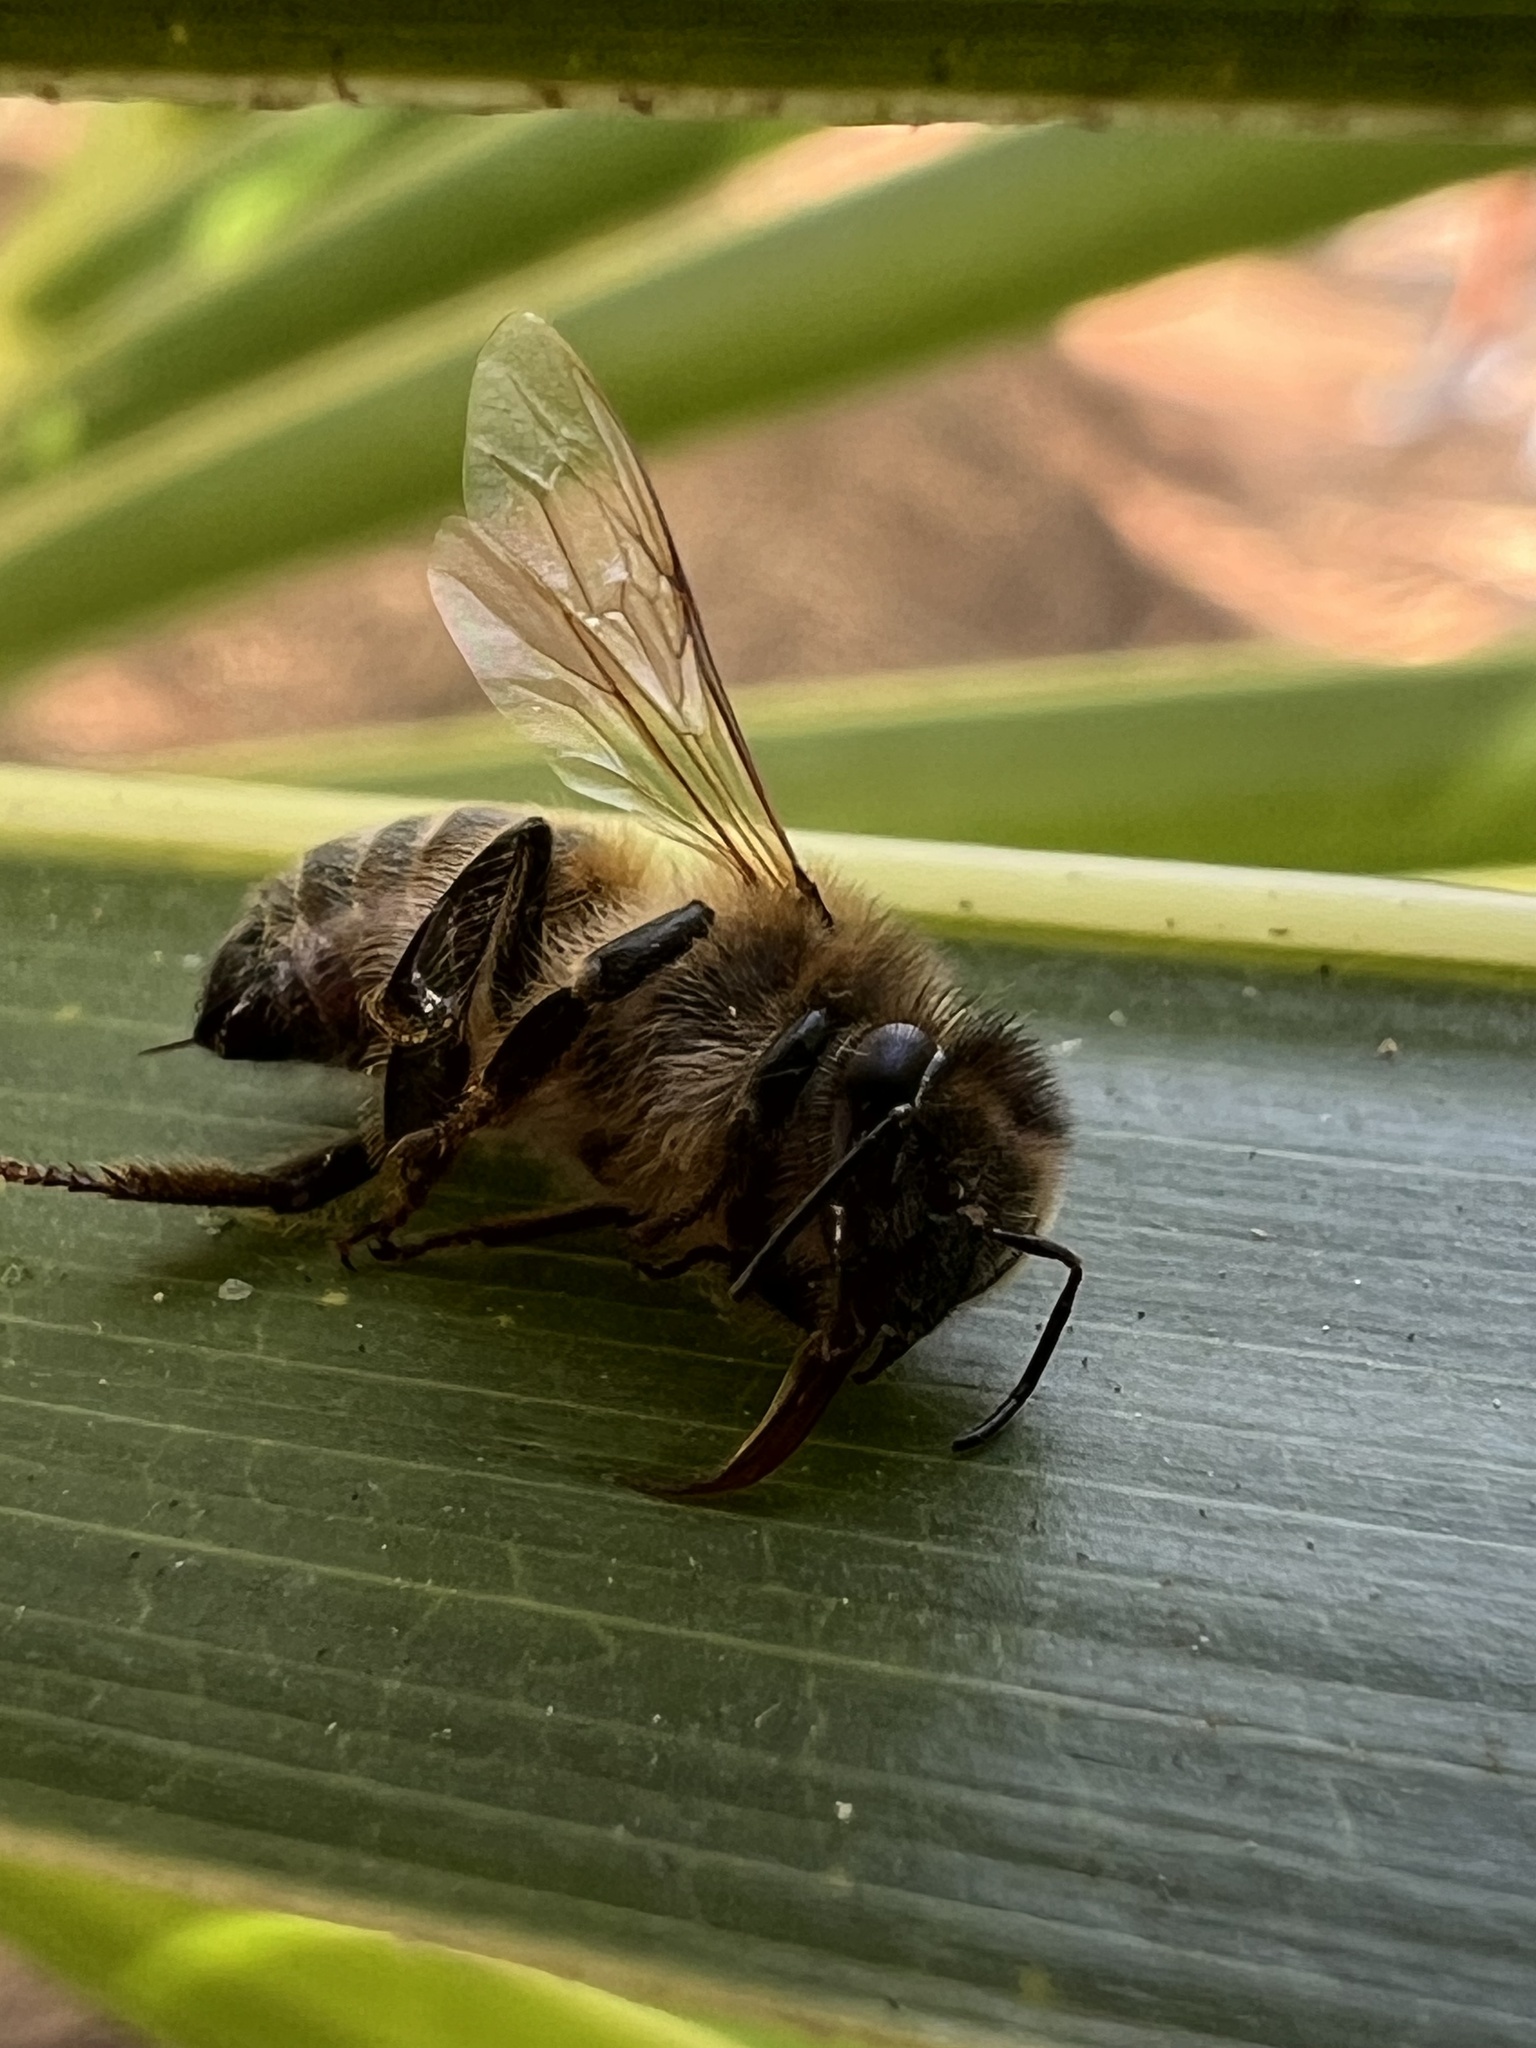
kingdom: Animalia
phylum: Arthropoda
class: Insecta
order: Hymenoptera
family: Apidae
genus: Apis
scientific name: Apis mellifera
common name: Honey bee
